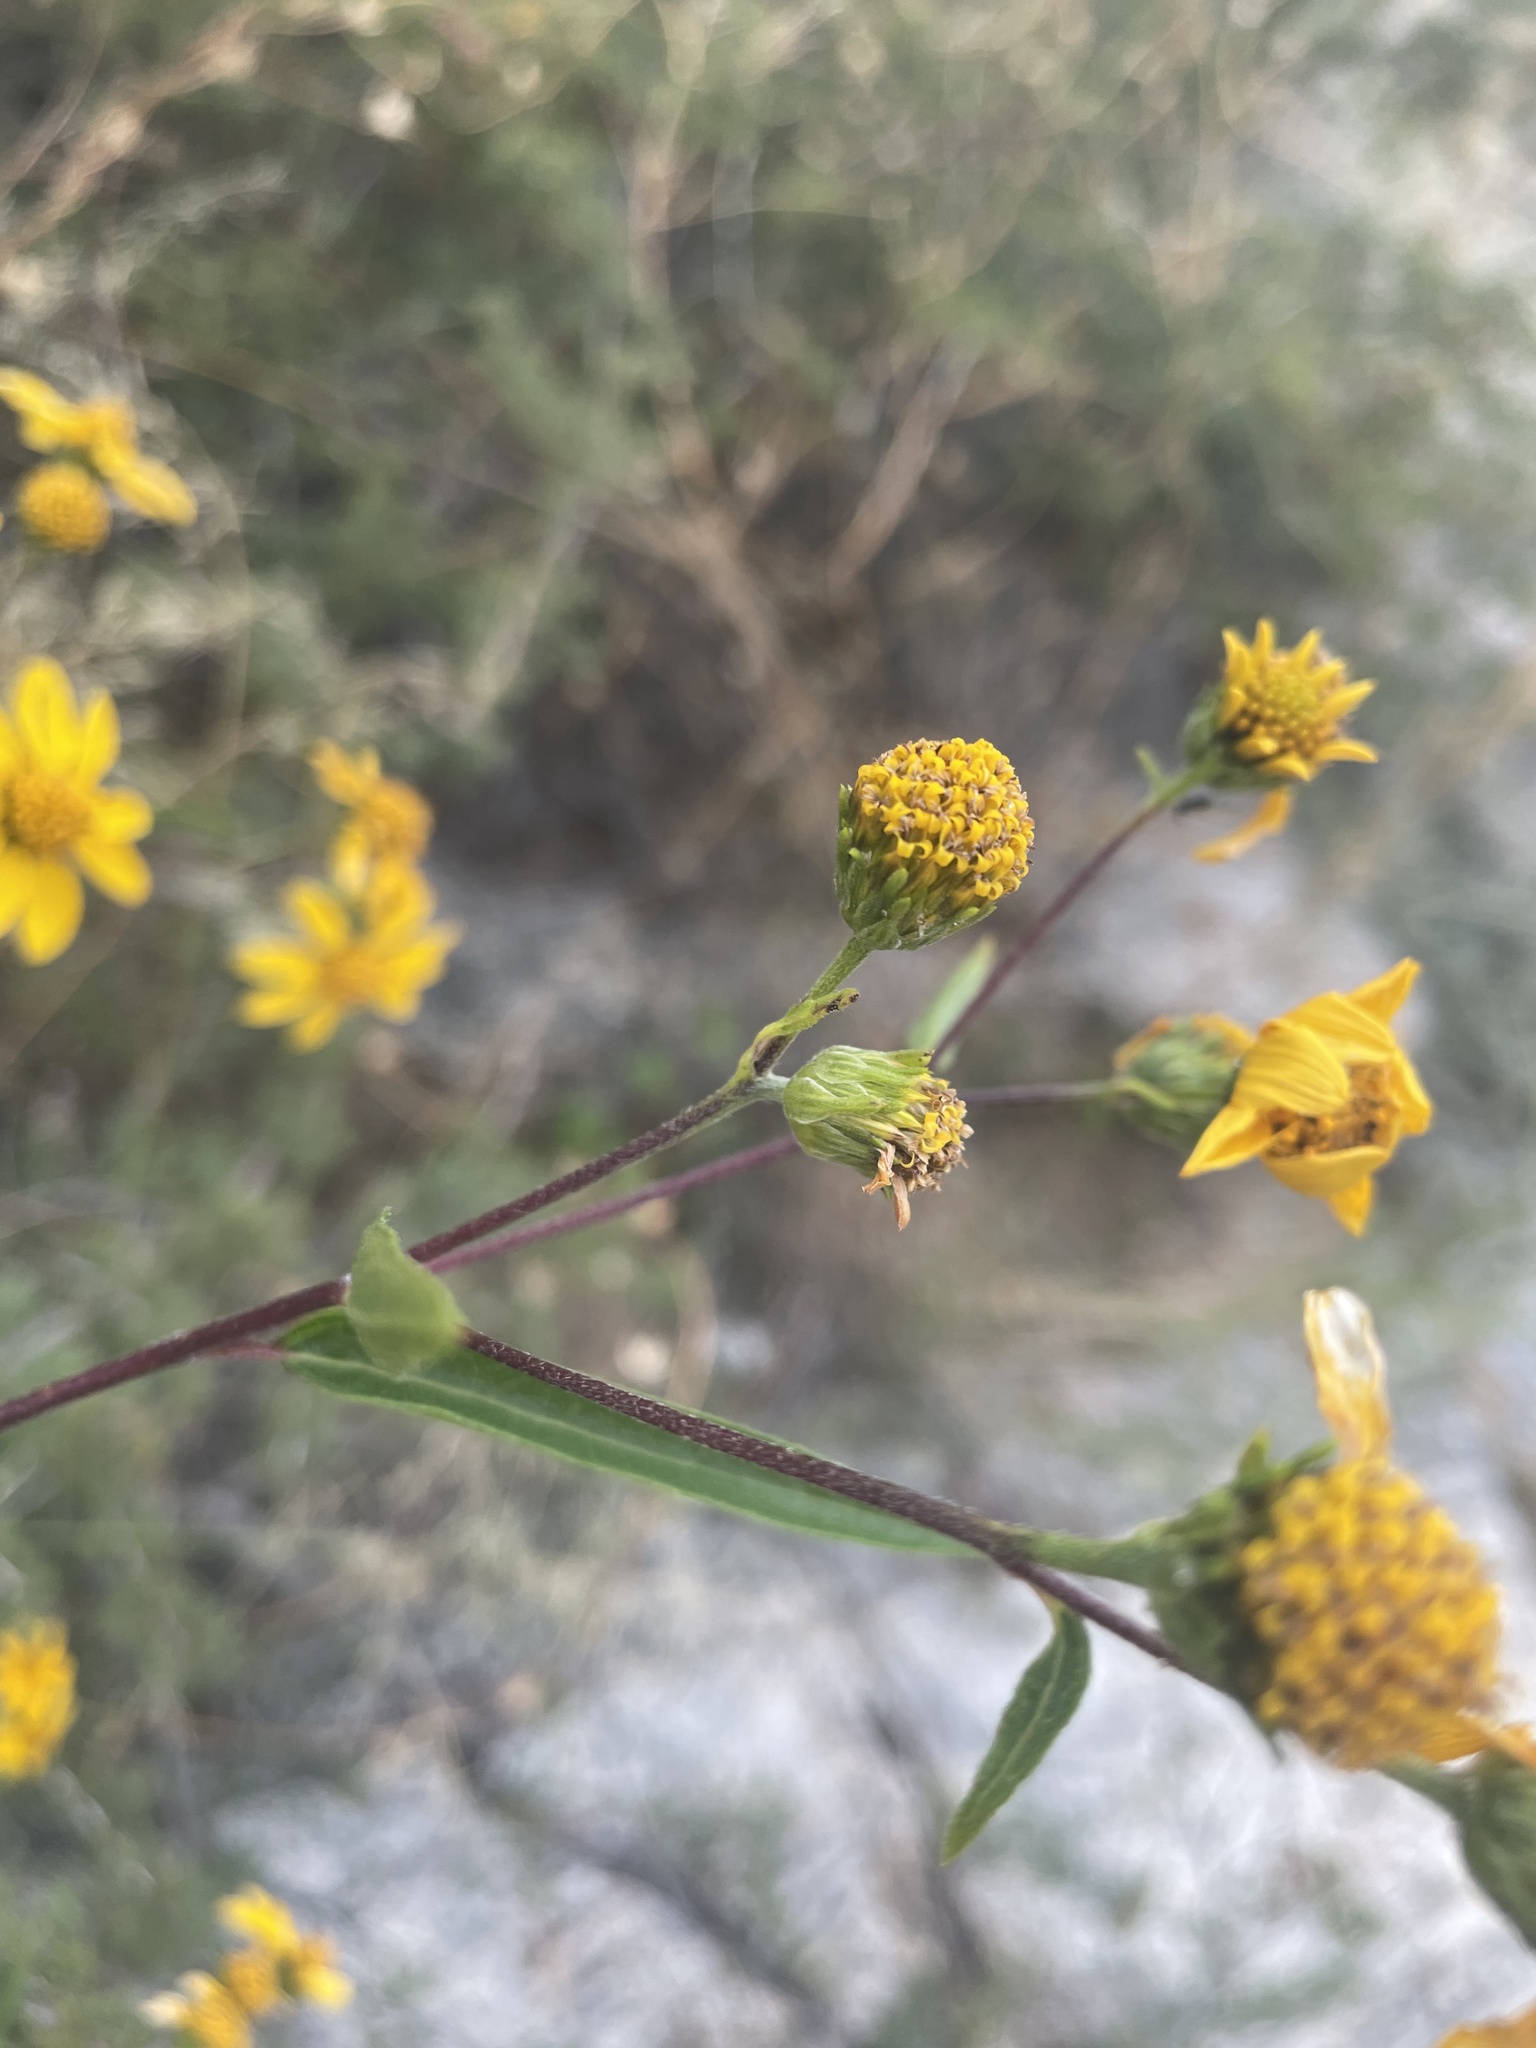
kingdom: Plantae
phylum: Tracheophyta
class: Magnoliopsida
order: Asterales
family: Asteraceae
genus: Viguiera
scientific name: Viguiera dentata
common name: Toothleaf
